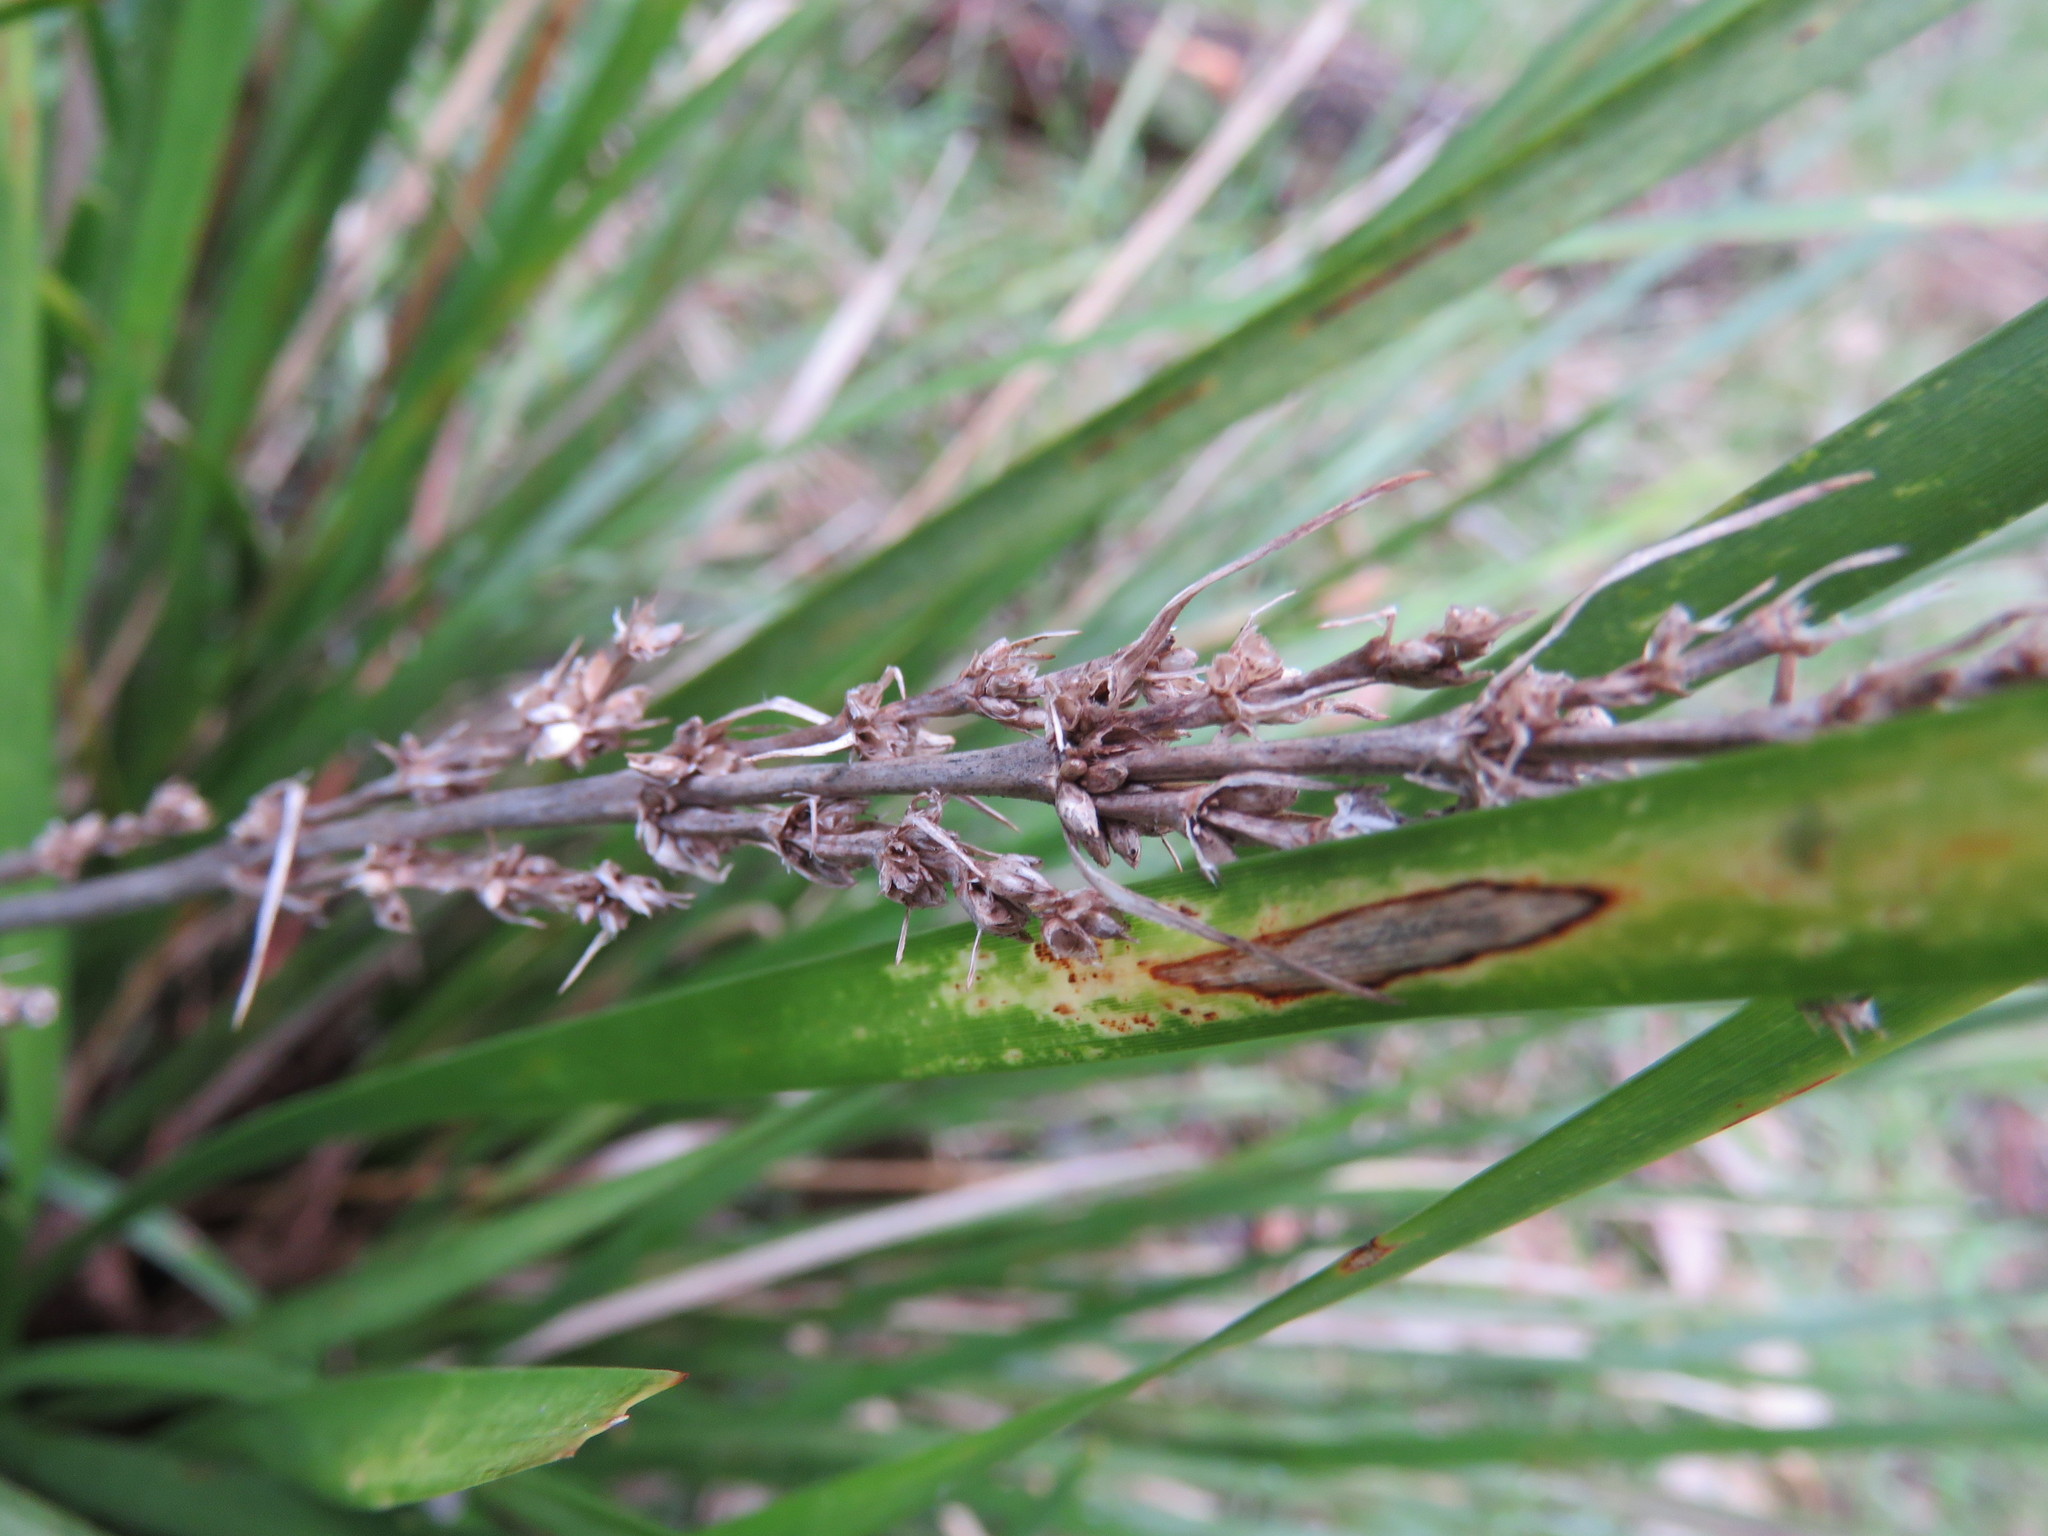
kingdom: Plantae
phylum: Tracheophyta
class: Liliopsida
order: Asparagales
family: Asparagaceae
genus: Lomandra
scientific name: Lomandra longifolia
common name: Longleaf mat-rush
